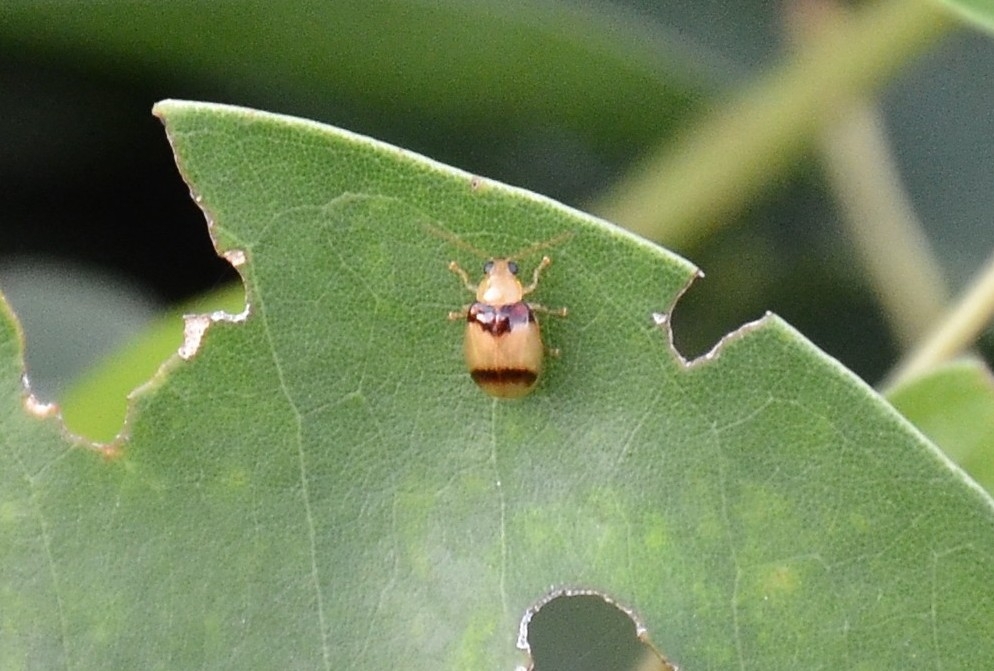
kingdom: Animalia
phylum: Arthropoda
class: Insecta
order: Coleoptera
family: Chrysomelidae
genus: Monolepta
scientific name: Monolepta
